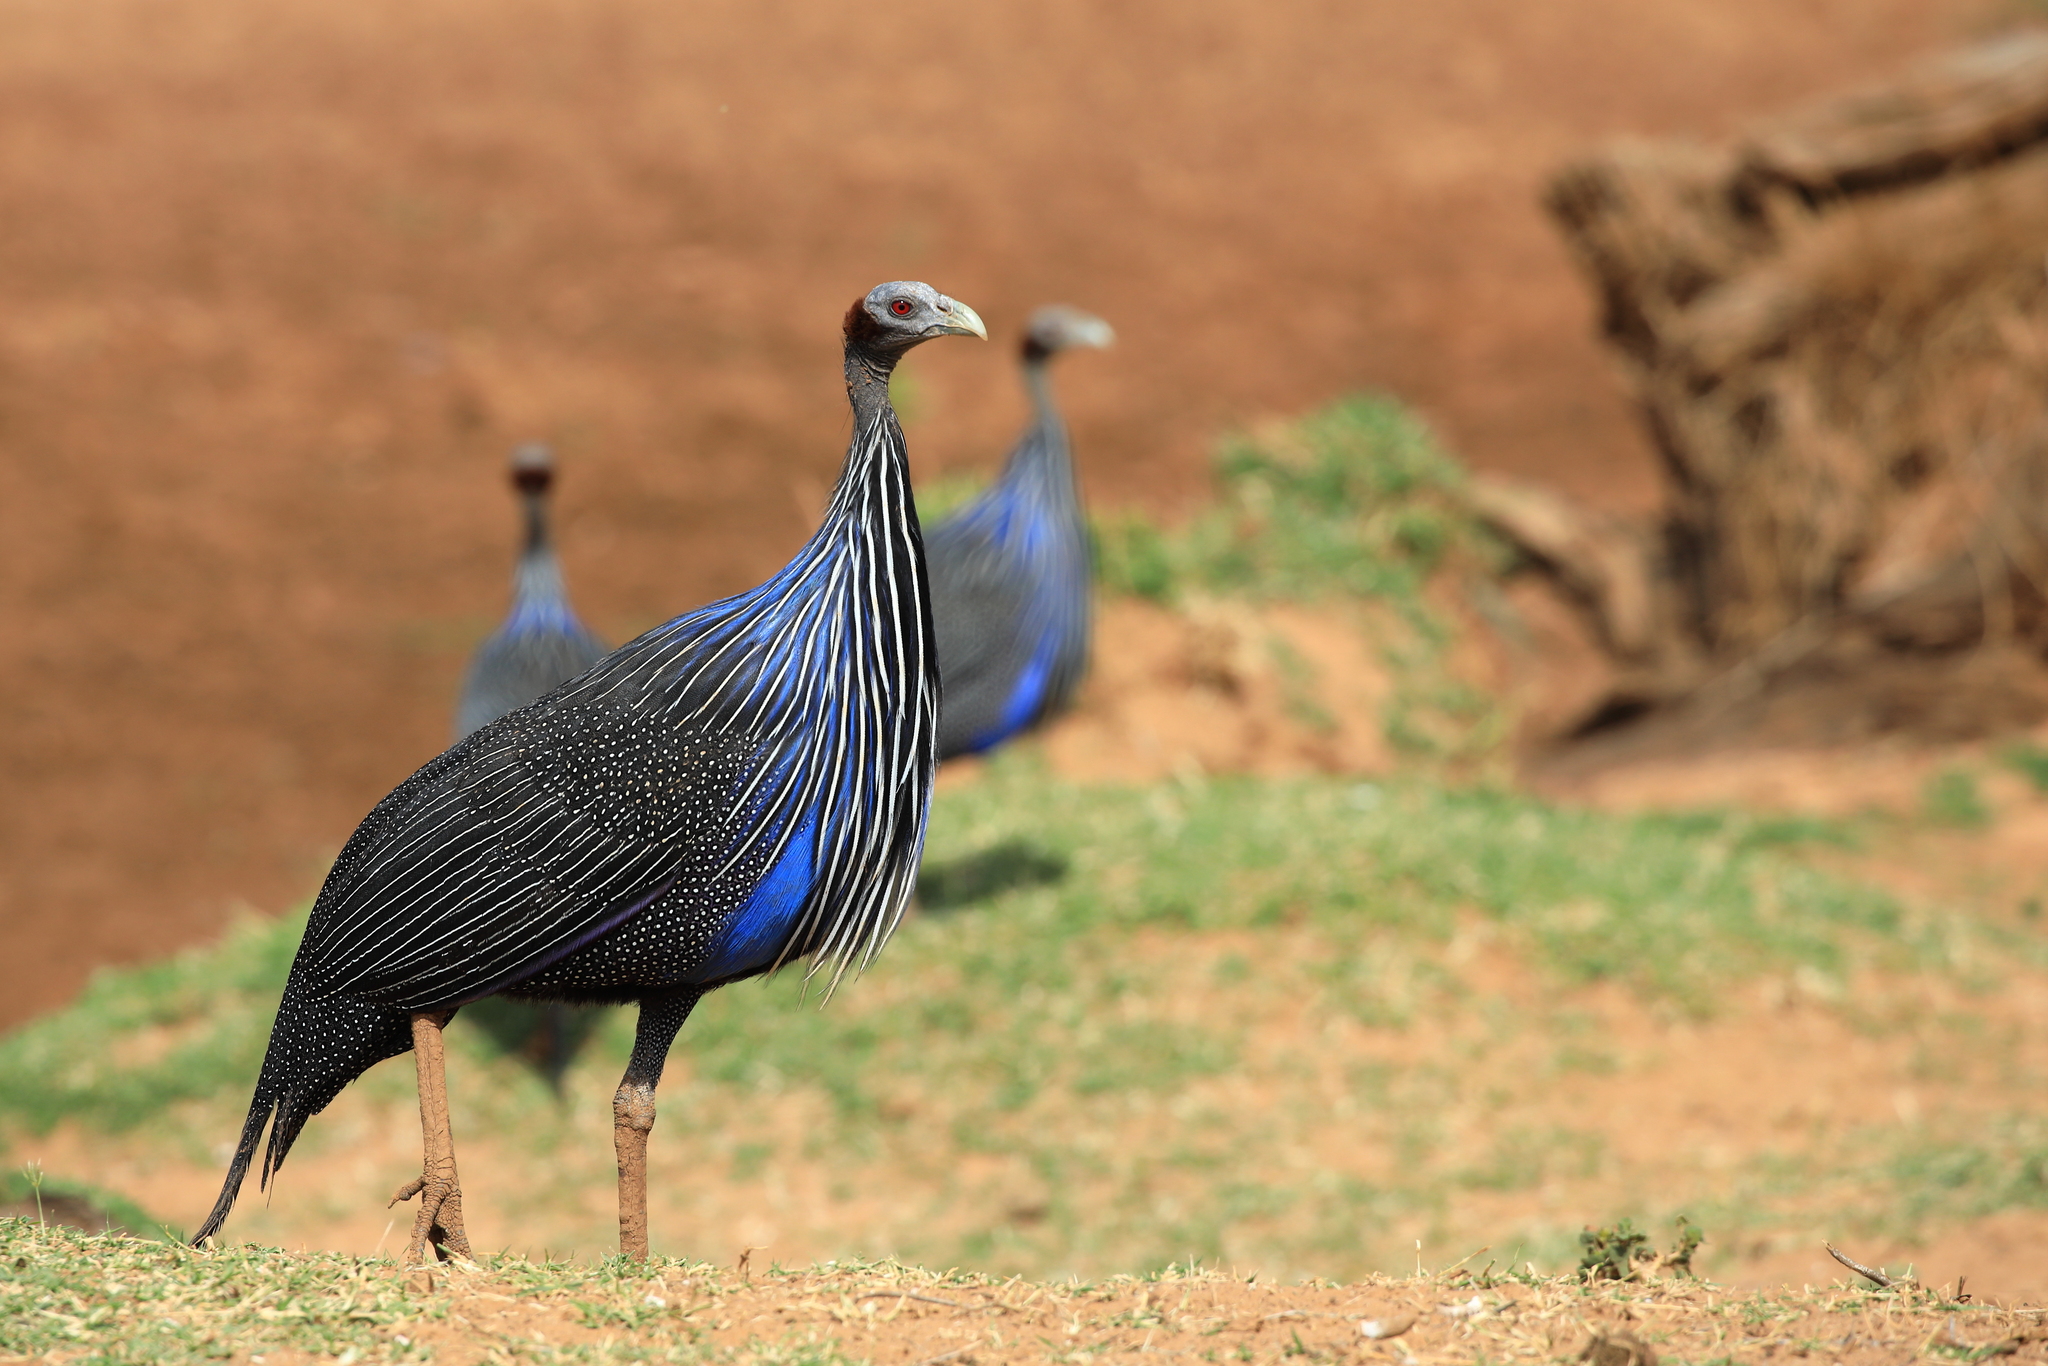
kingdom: Animalia
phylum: Chordata
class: Aves
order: Galliformes
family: Numididae
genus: Acryllium
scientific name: Acryllium vulturinum
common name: Vulturine guineafowl
